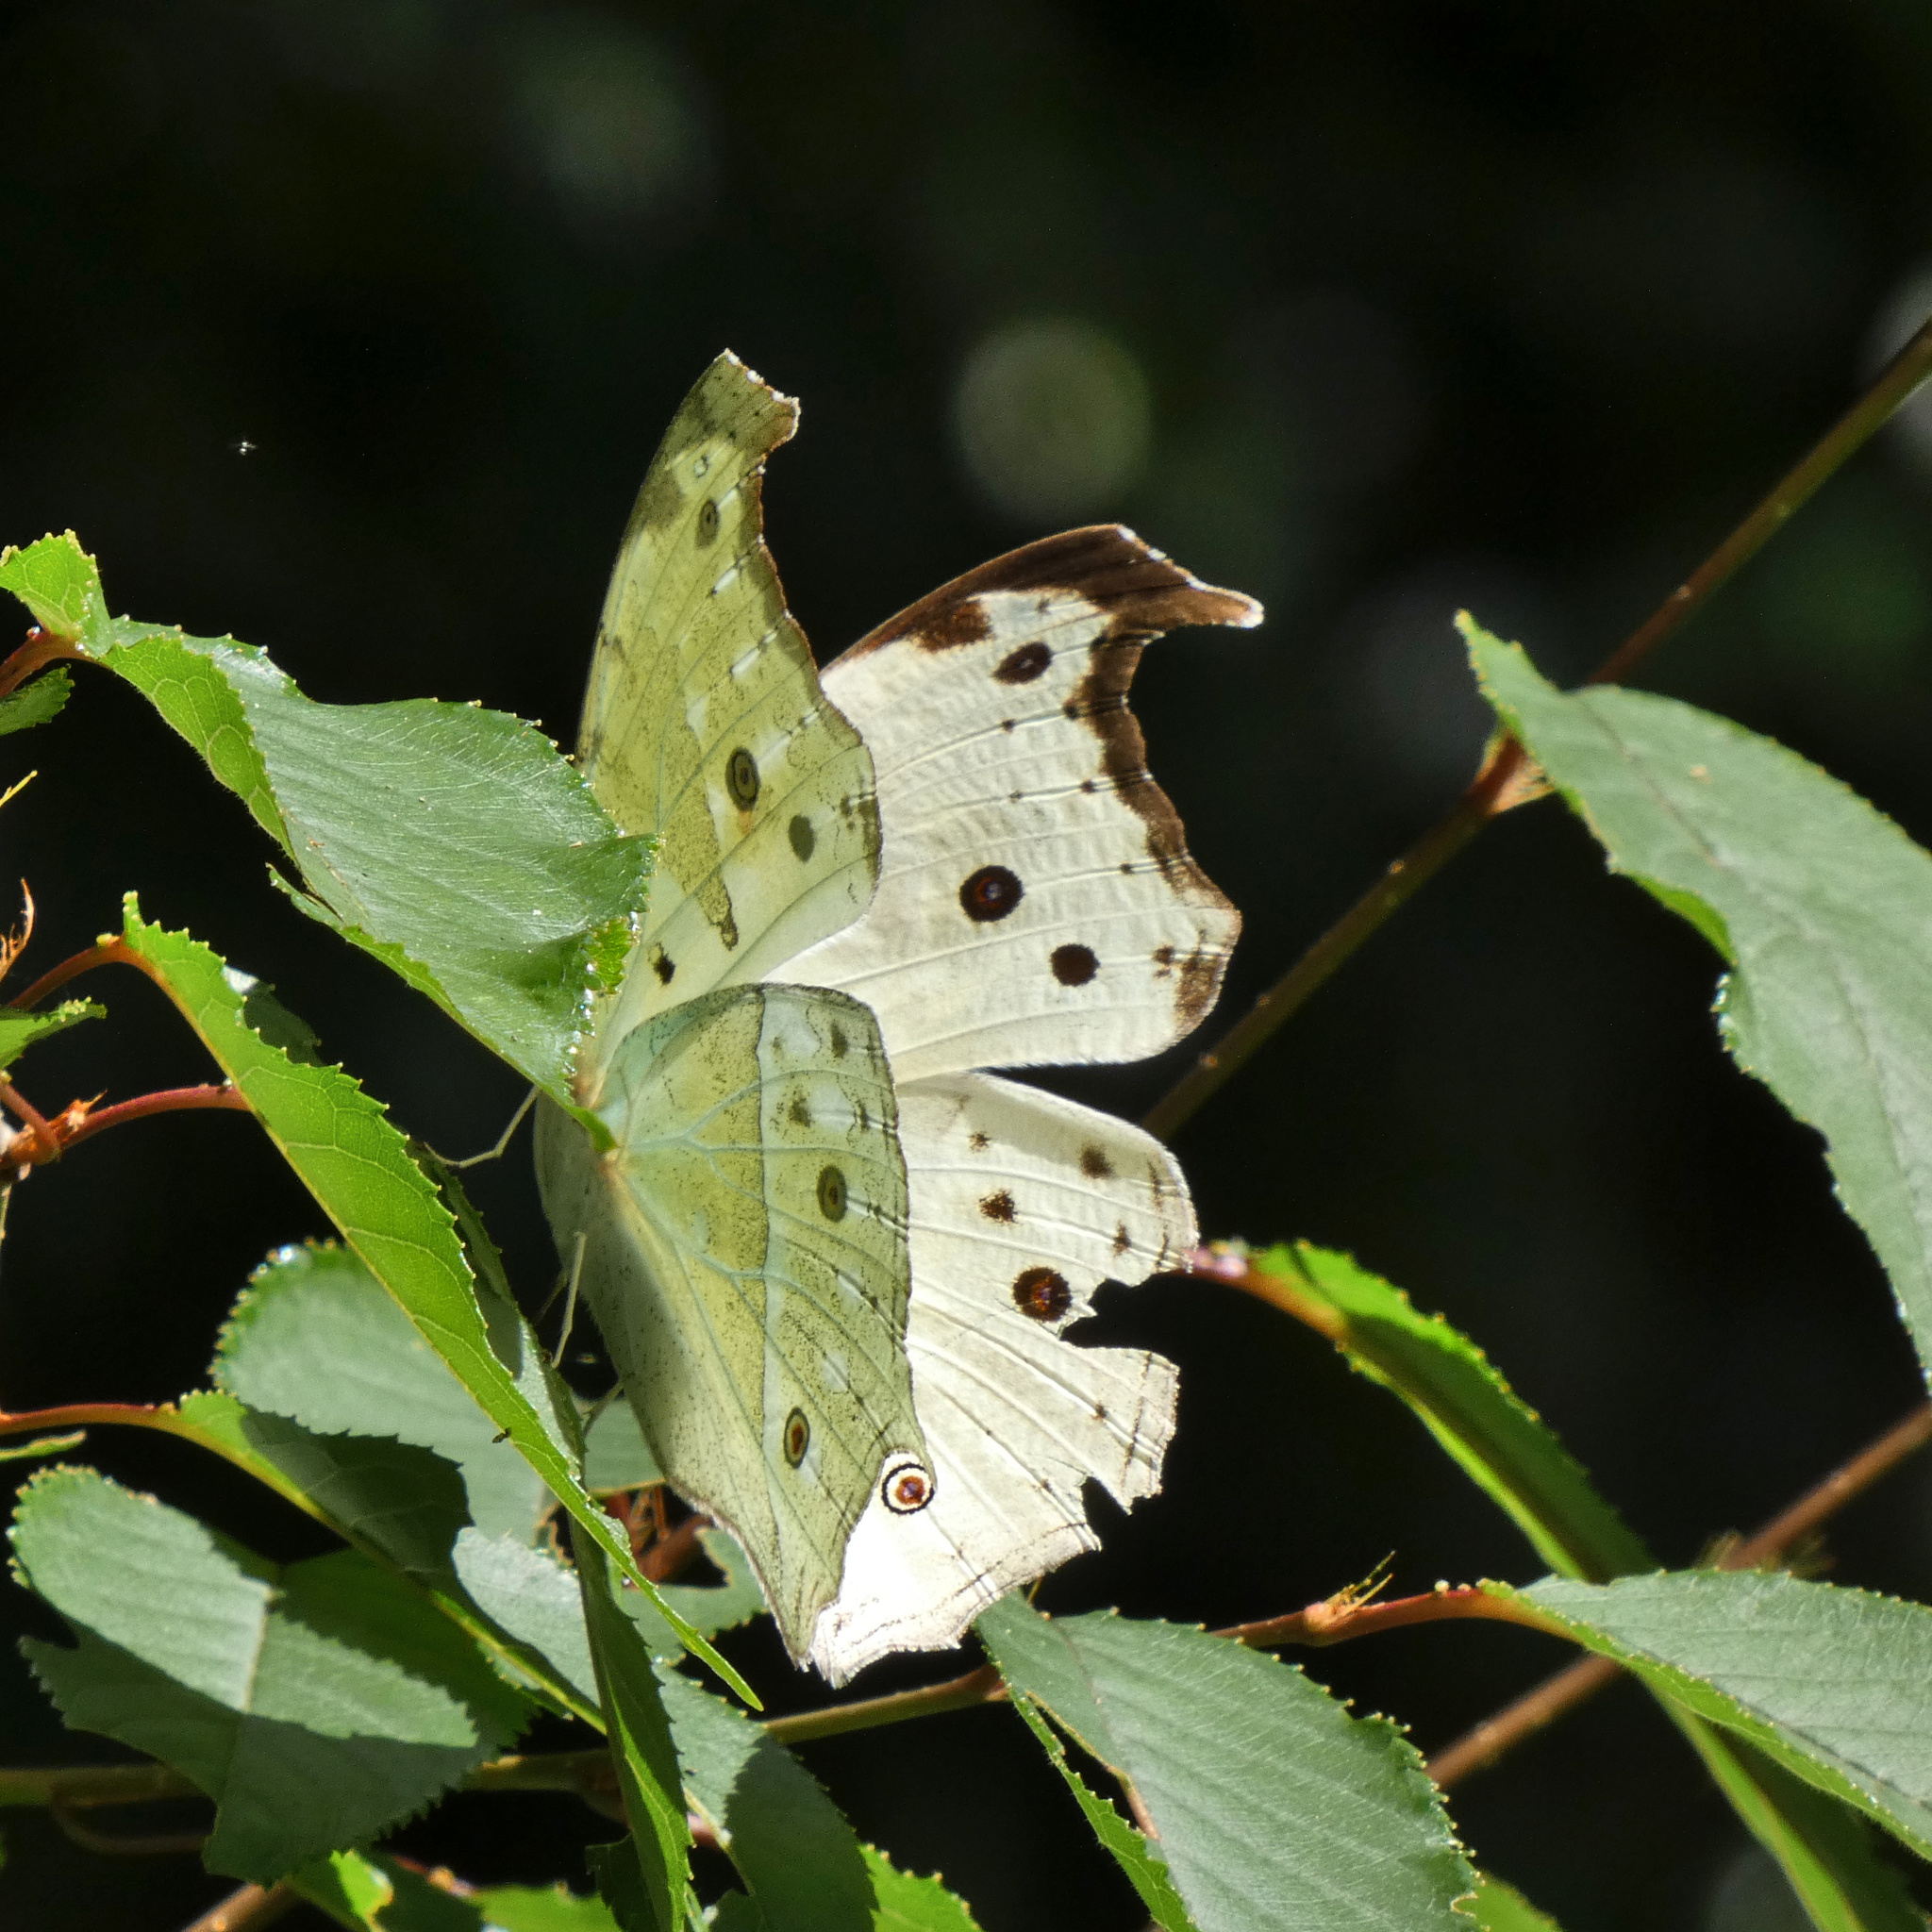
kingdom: Animalia
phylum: Arthropoda
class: Insecta
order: Lepidoptera
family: Nymphalidae
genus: Salamis
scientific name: Salamis Protogoniomorpha parhassus
